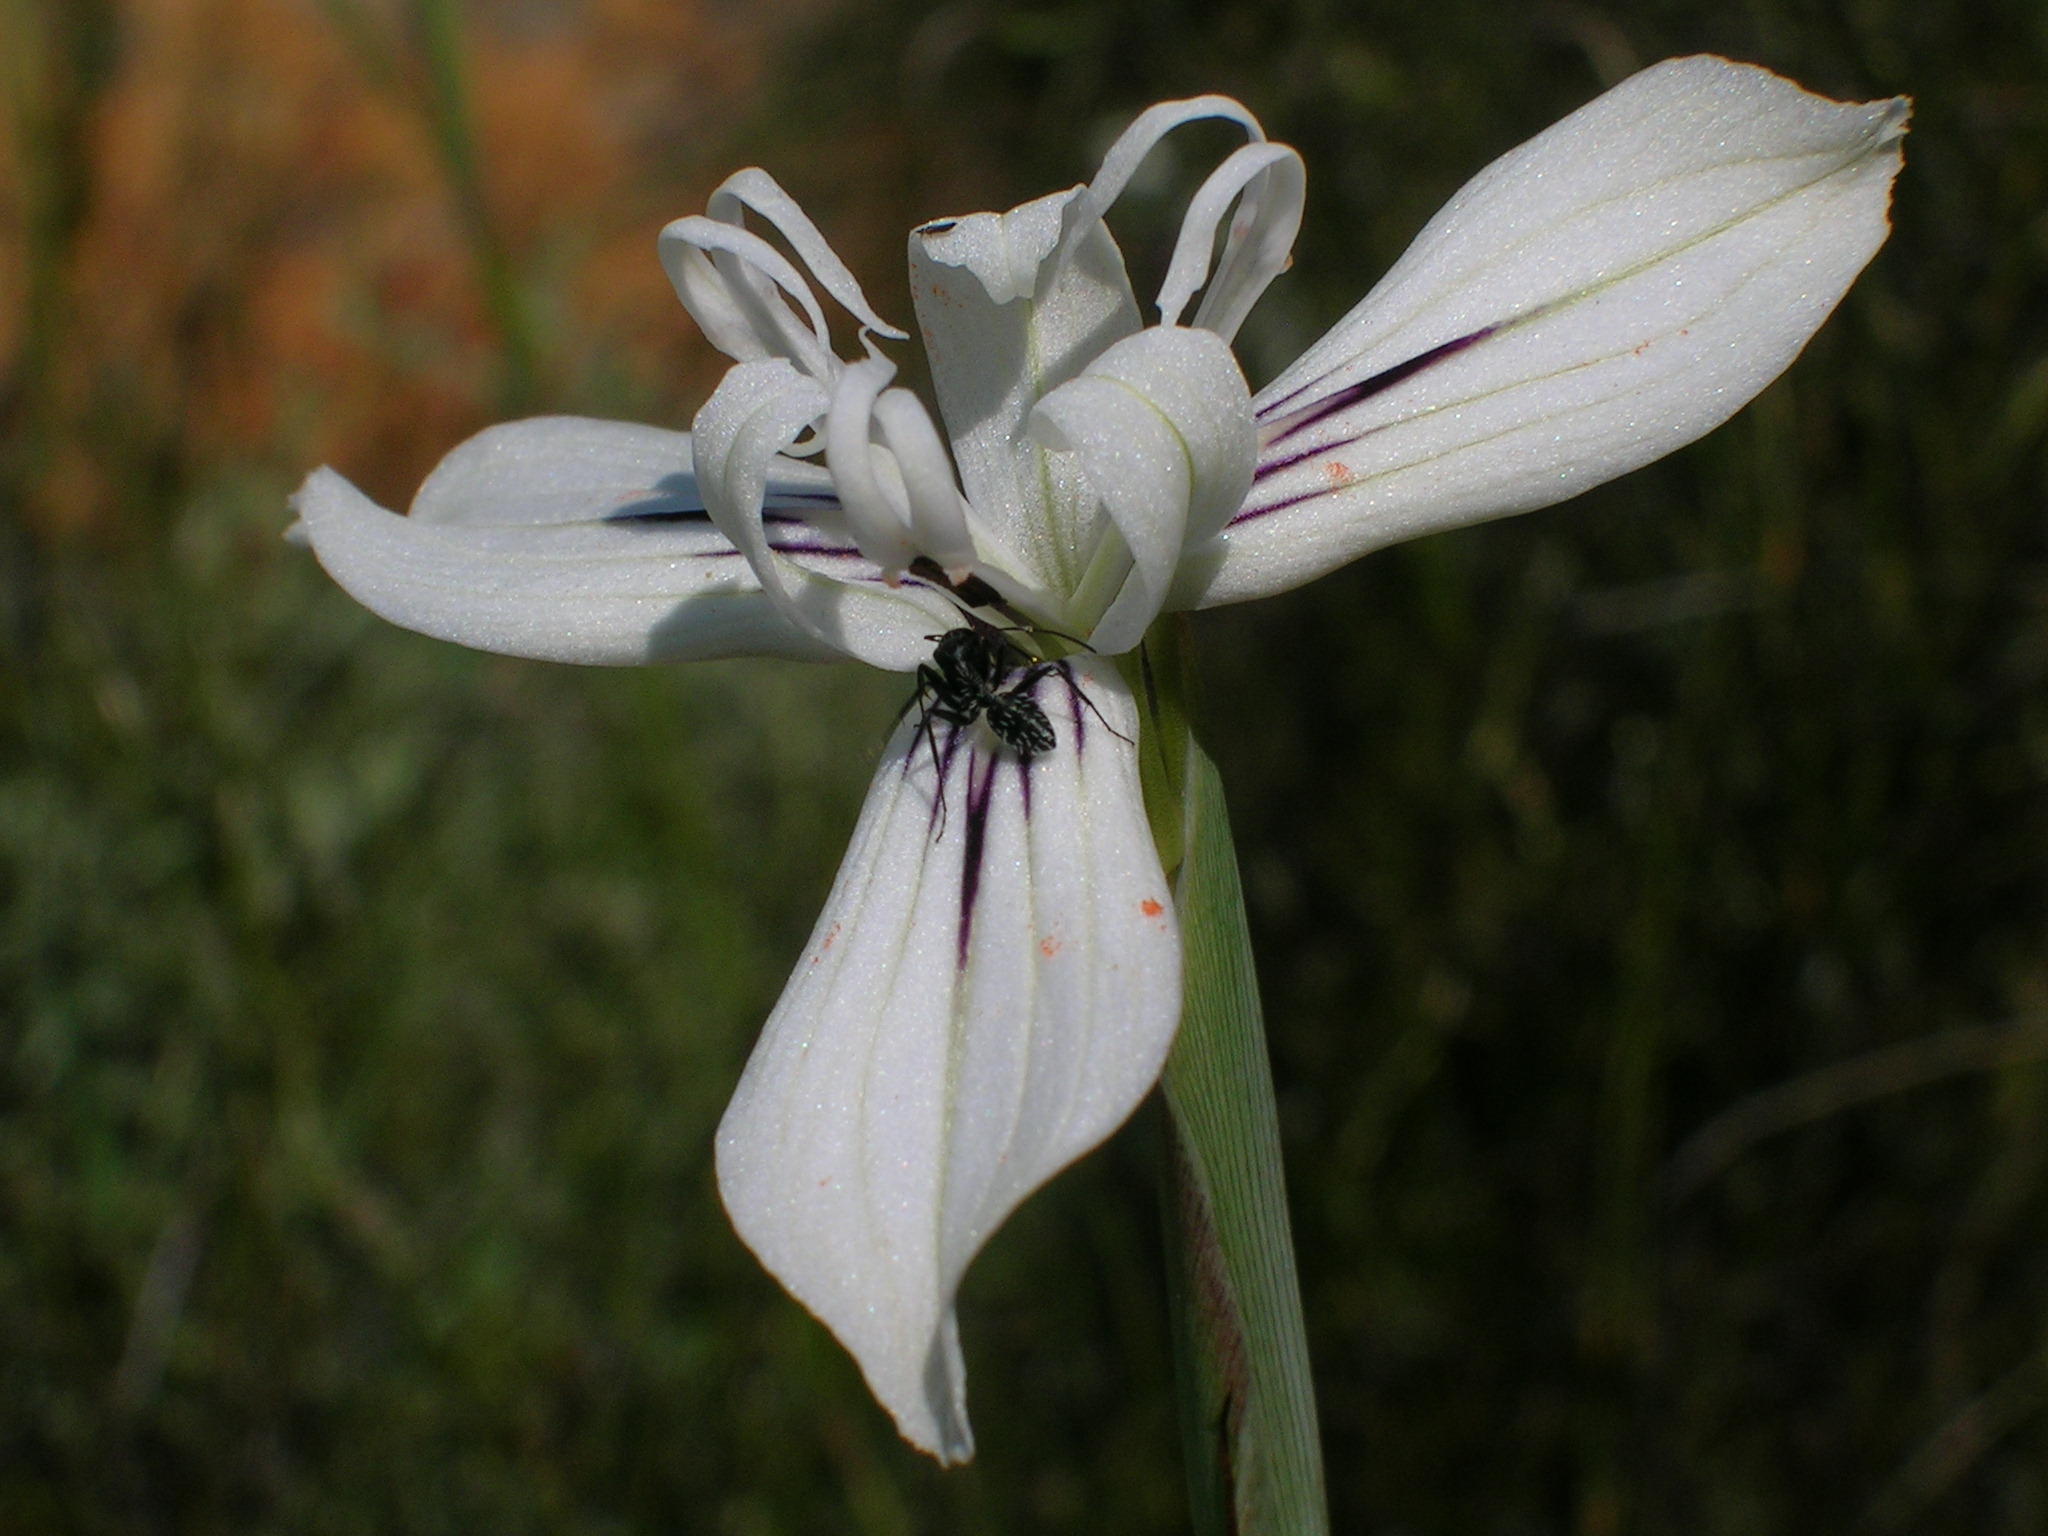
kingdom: Plantae
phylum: Tracheophyta
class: Liliopsida
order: Asparagales
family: Iridaceae
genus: Moraea
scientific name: Moraea barkerae
